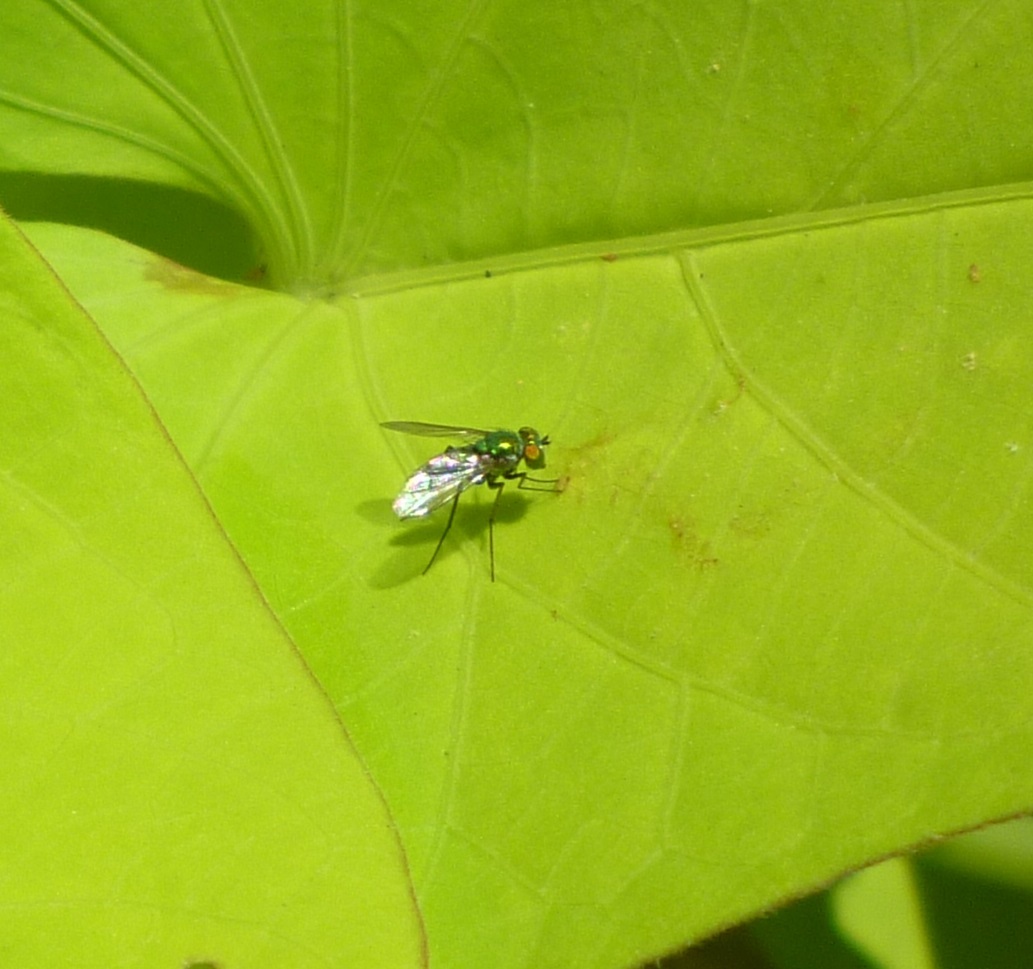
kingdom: Animalia
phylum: Arthropoda
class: Insecta
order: Diptera
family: Dolichopodidae
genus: Condylostylus
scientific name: Condylostylus longicornis
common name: Long-legged fly
